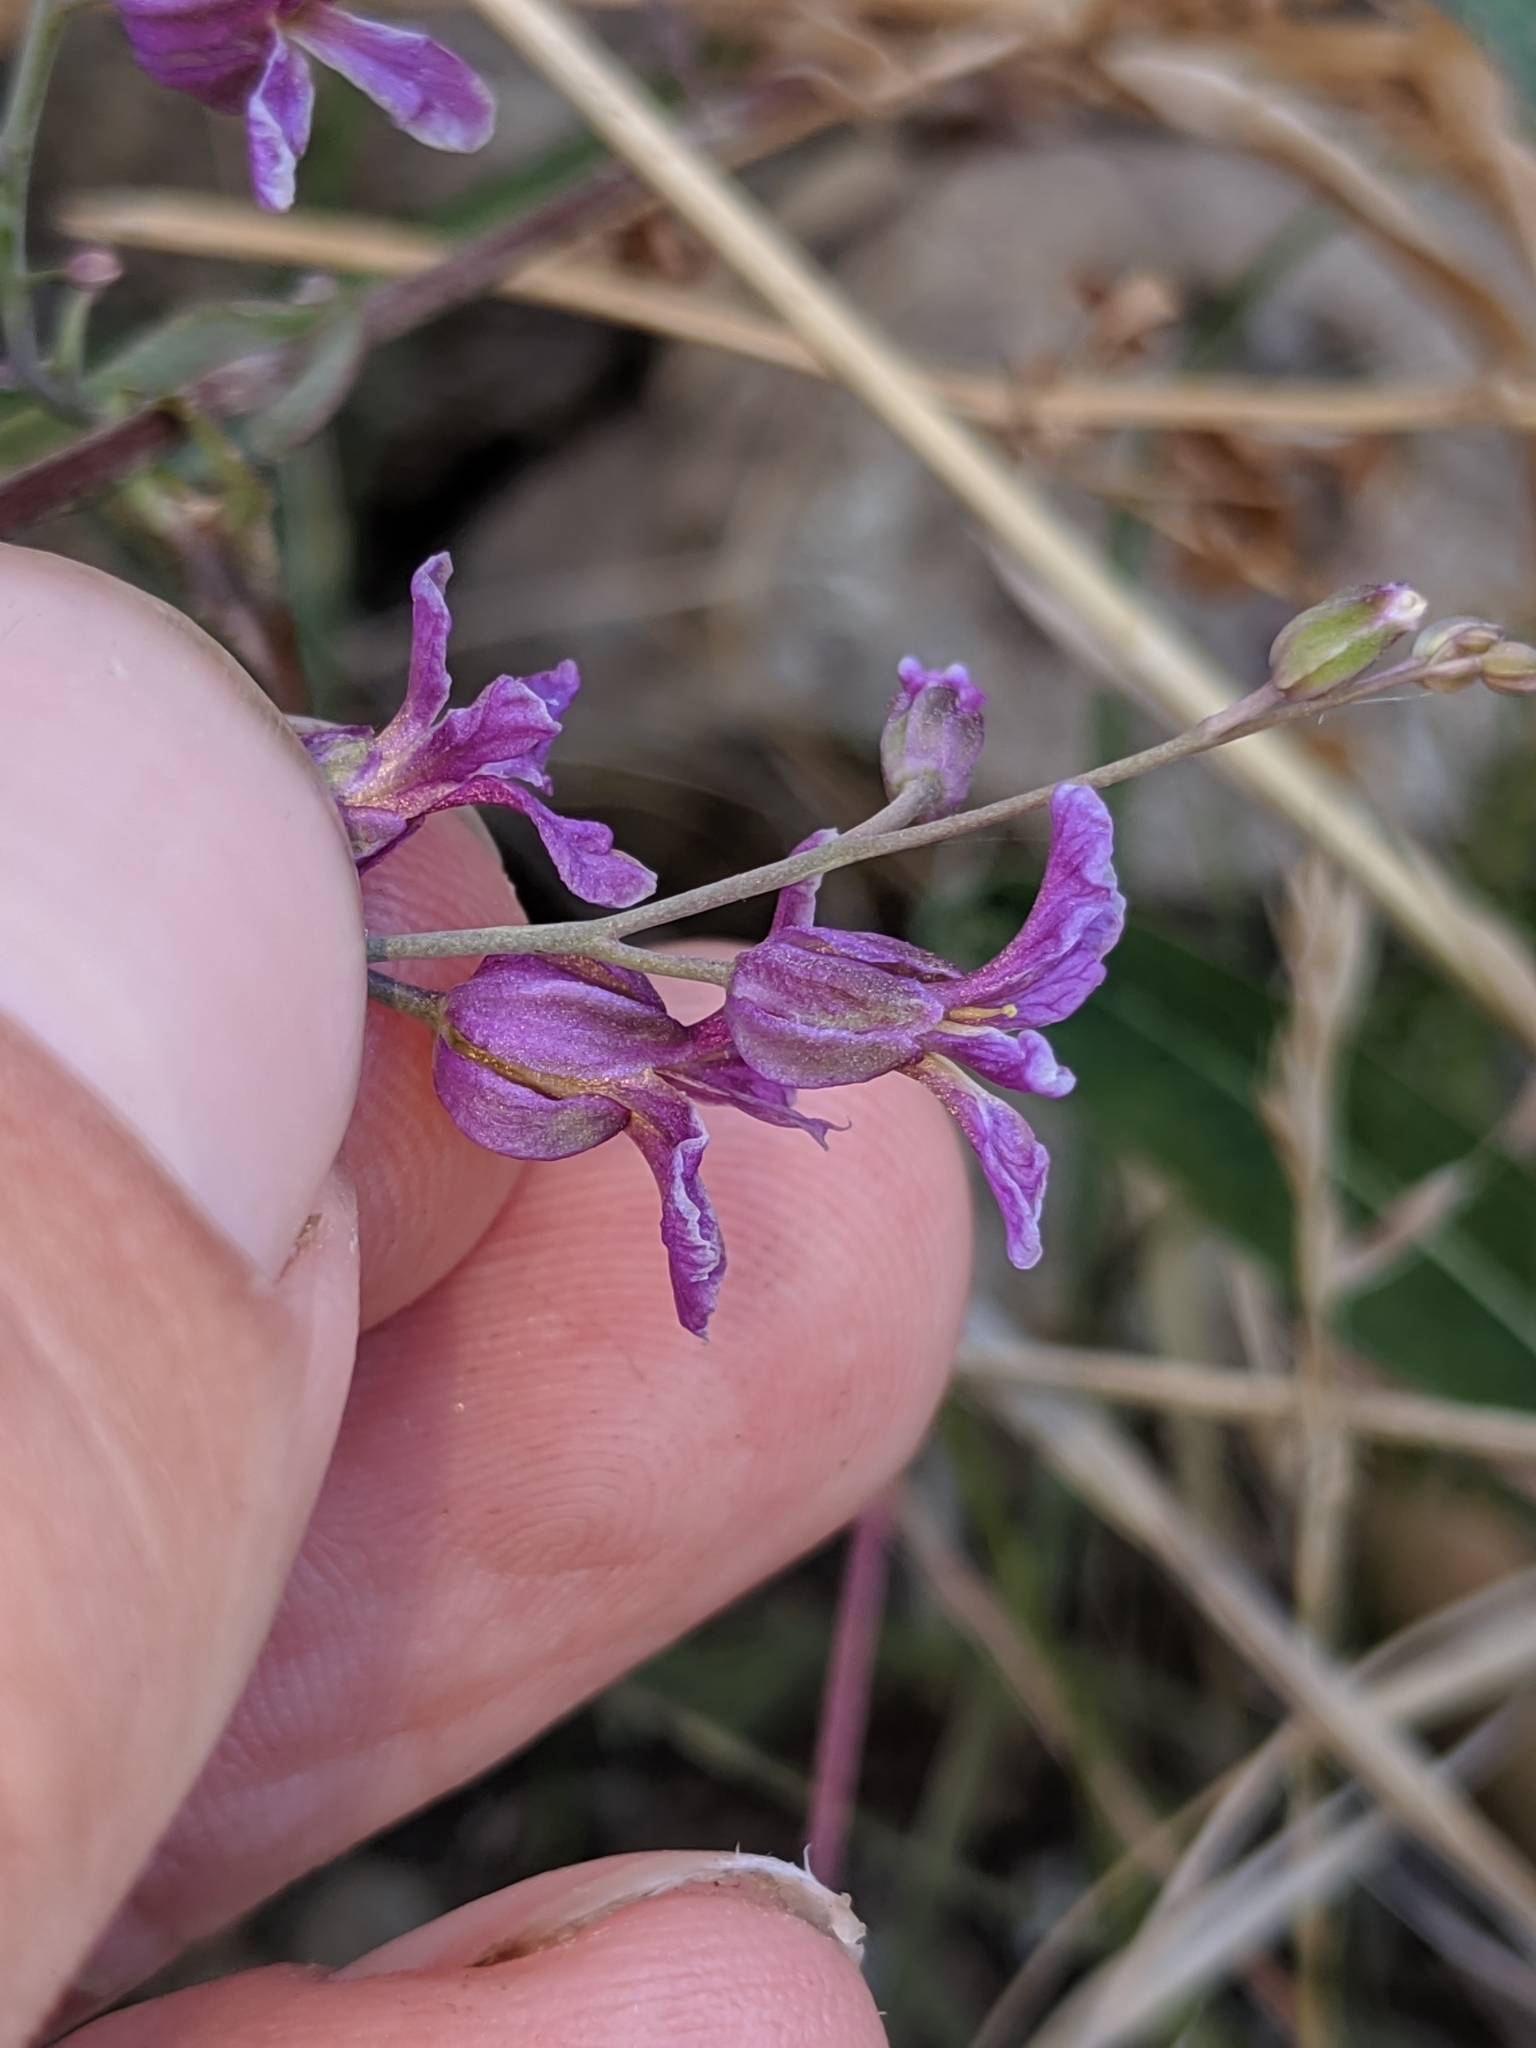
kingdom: Plantae
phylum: Tracheophyta
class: Magnoliopsida
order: Brassicales
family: Brassicaceae
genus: Streptanthus
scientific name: Streptanthus glandulosus
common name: Jewel-flower
